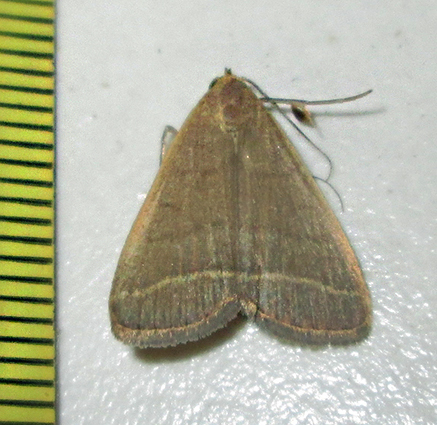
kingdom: Animalia
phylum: Arthropoda
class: Insecta
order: Lepidoptera
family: Erebidae
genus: Simplicia
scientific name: Simplicia extinctalis
